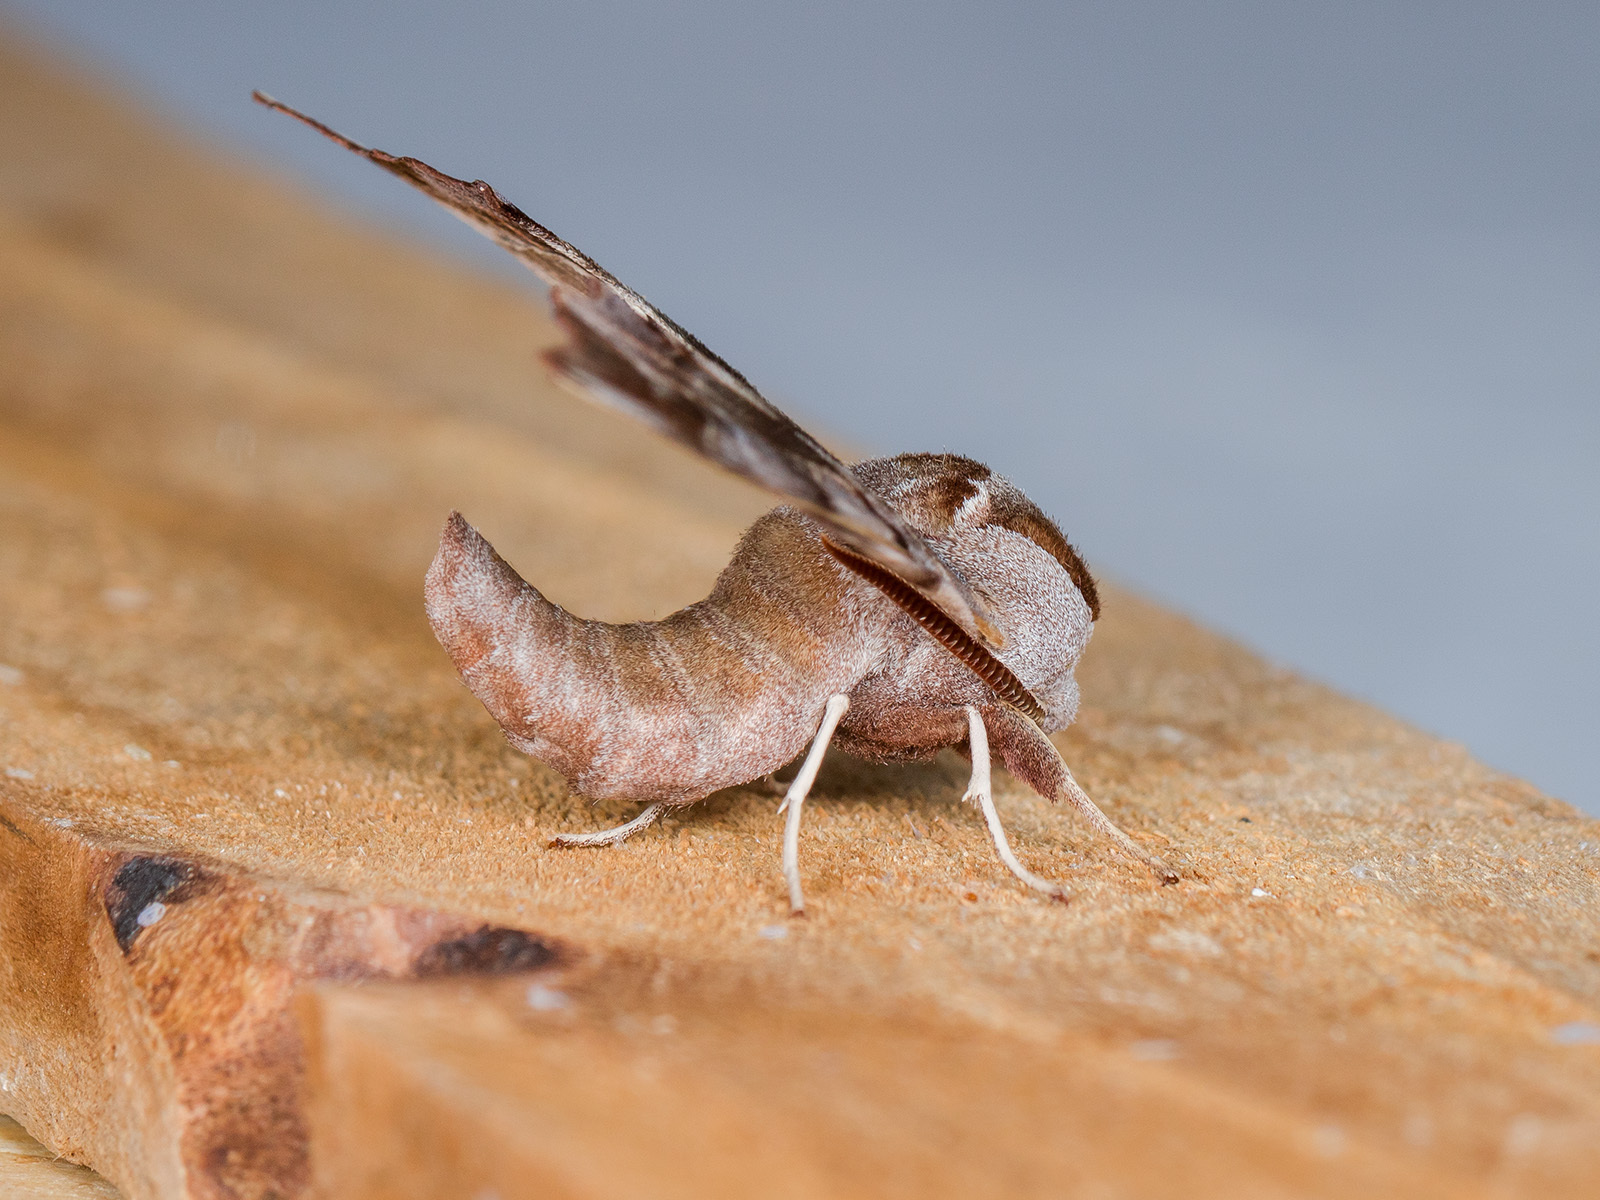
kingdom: Animalia
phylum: Arthropoda
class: Insecta
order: Lepidoptera
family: Sphingidae
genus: Smerinthus
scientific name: Smerinthus kindermannii
